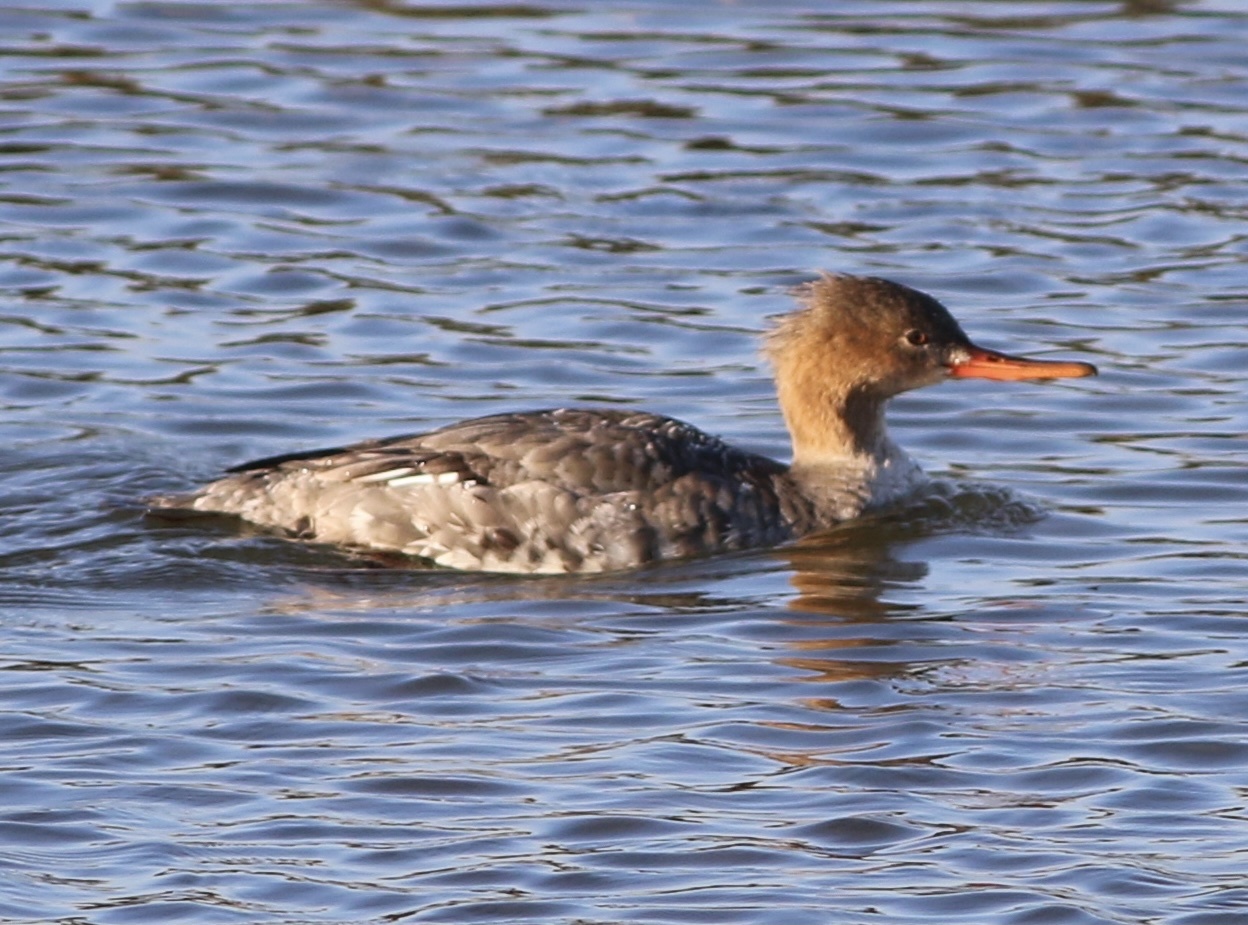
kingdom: Animalia
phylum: Chordata
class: Aves
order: Anseriformes
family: Anatidae
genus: Mergus
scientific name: Mergus serrator
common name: Red-breasted merganser
